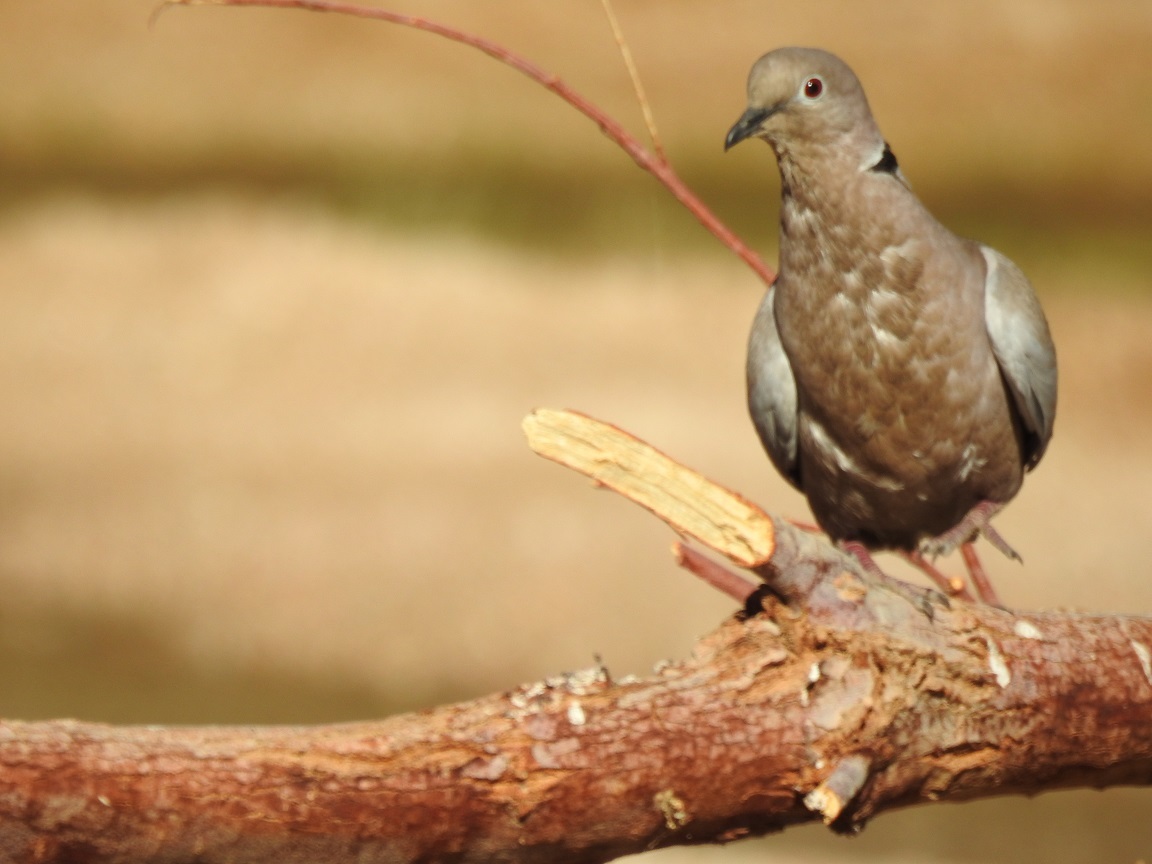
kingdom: Animalia
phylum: Chordata
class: Aves
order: Columbiformes
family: Columbidae
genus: Streptopelia
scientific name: Streptopelia decaocto
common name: Eurasian collared dove
